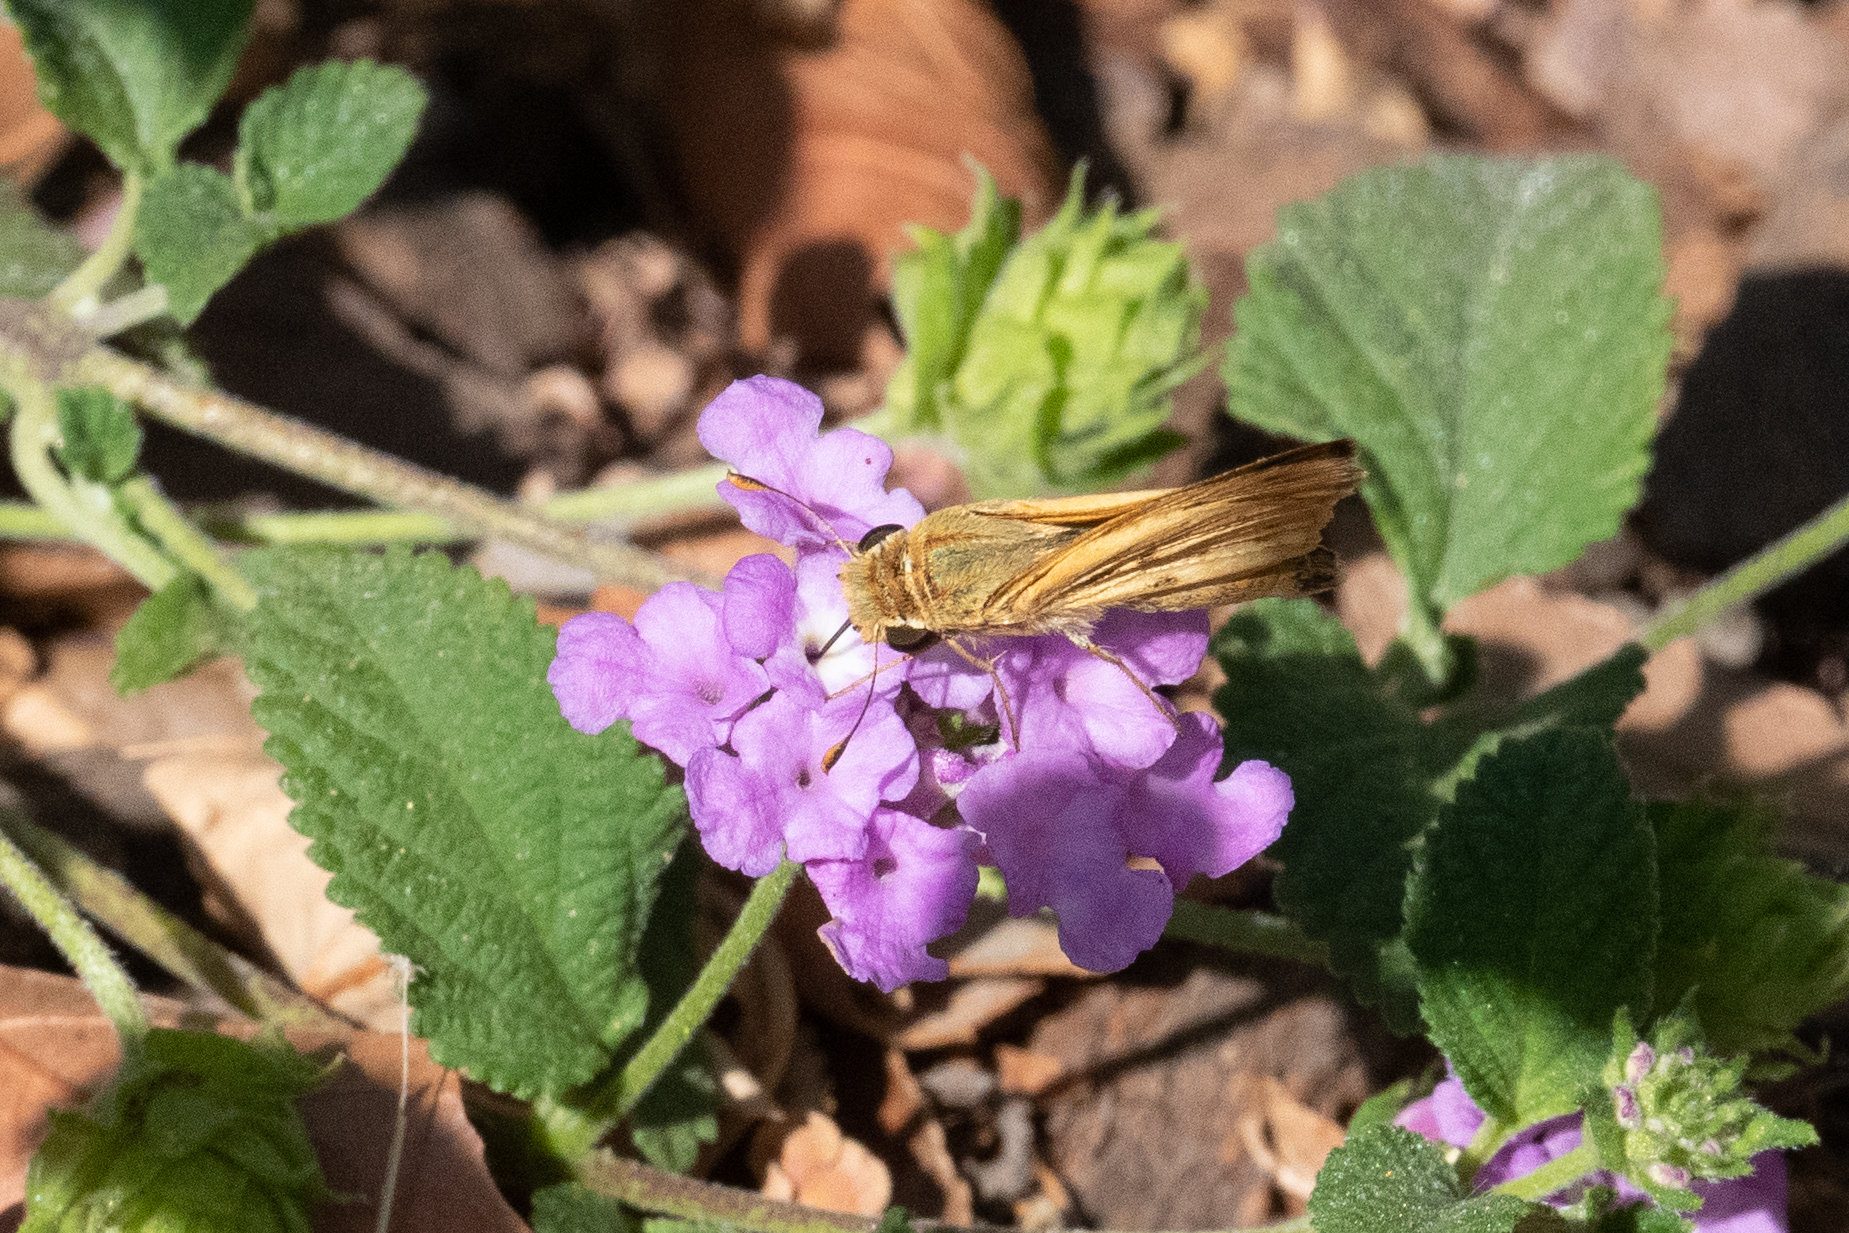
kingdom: Animalia
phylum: Arthropoda
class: Insecta
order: Lepidoptera
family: Hesperiidae
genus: Hylephila
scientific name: Hylephila phyleus
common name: Fiery skipper
